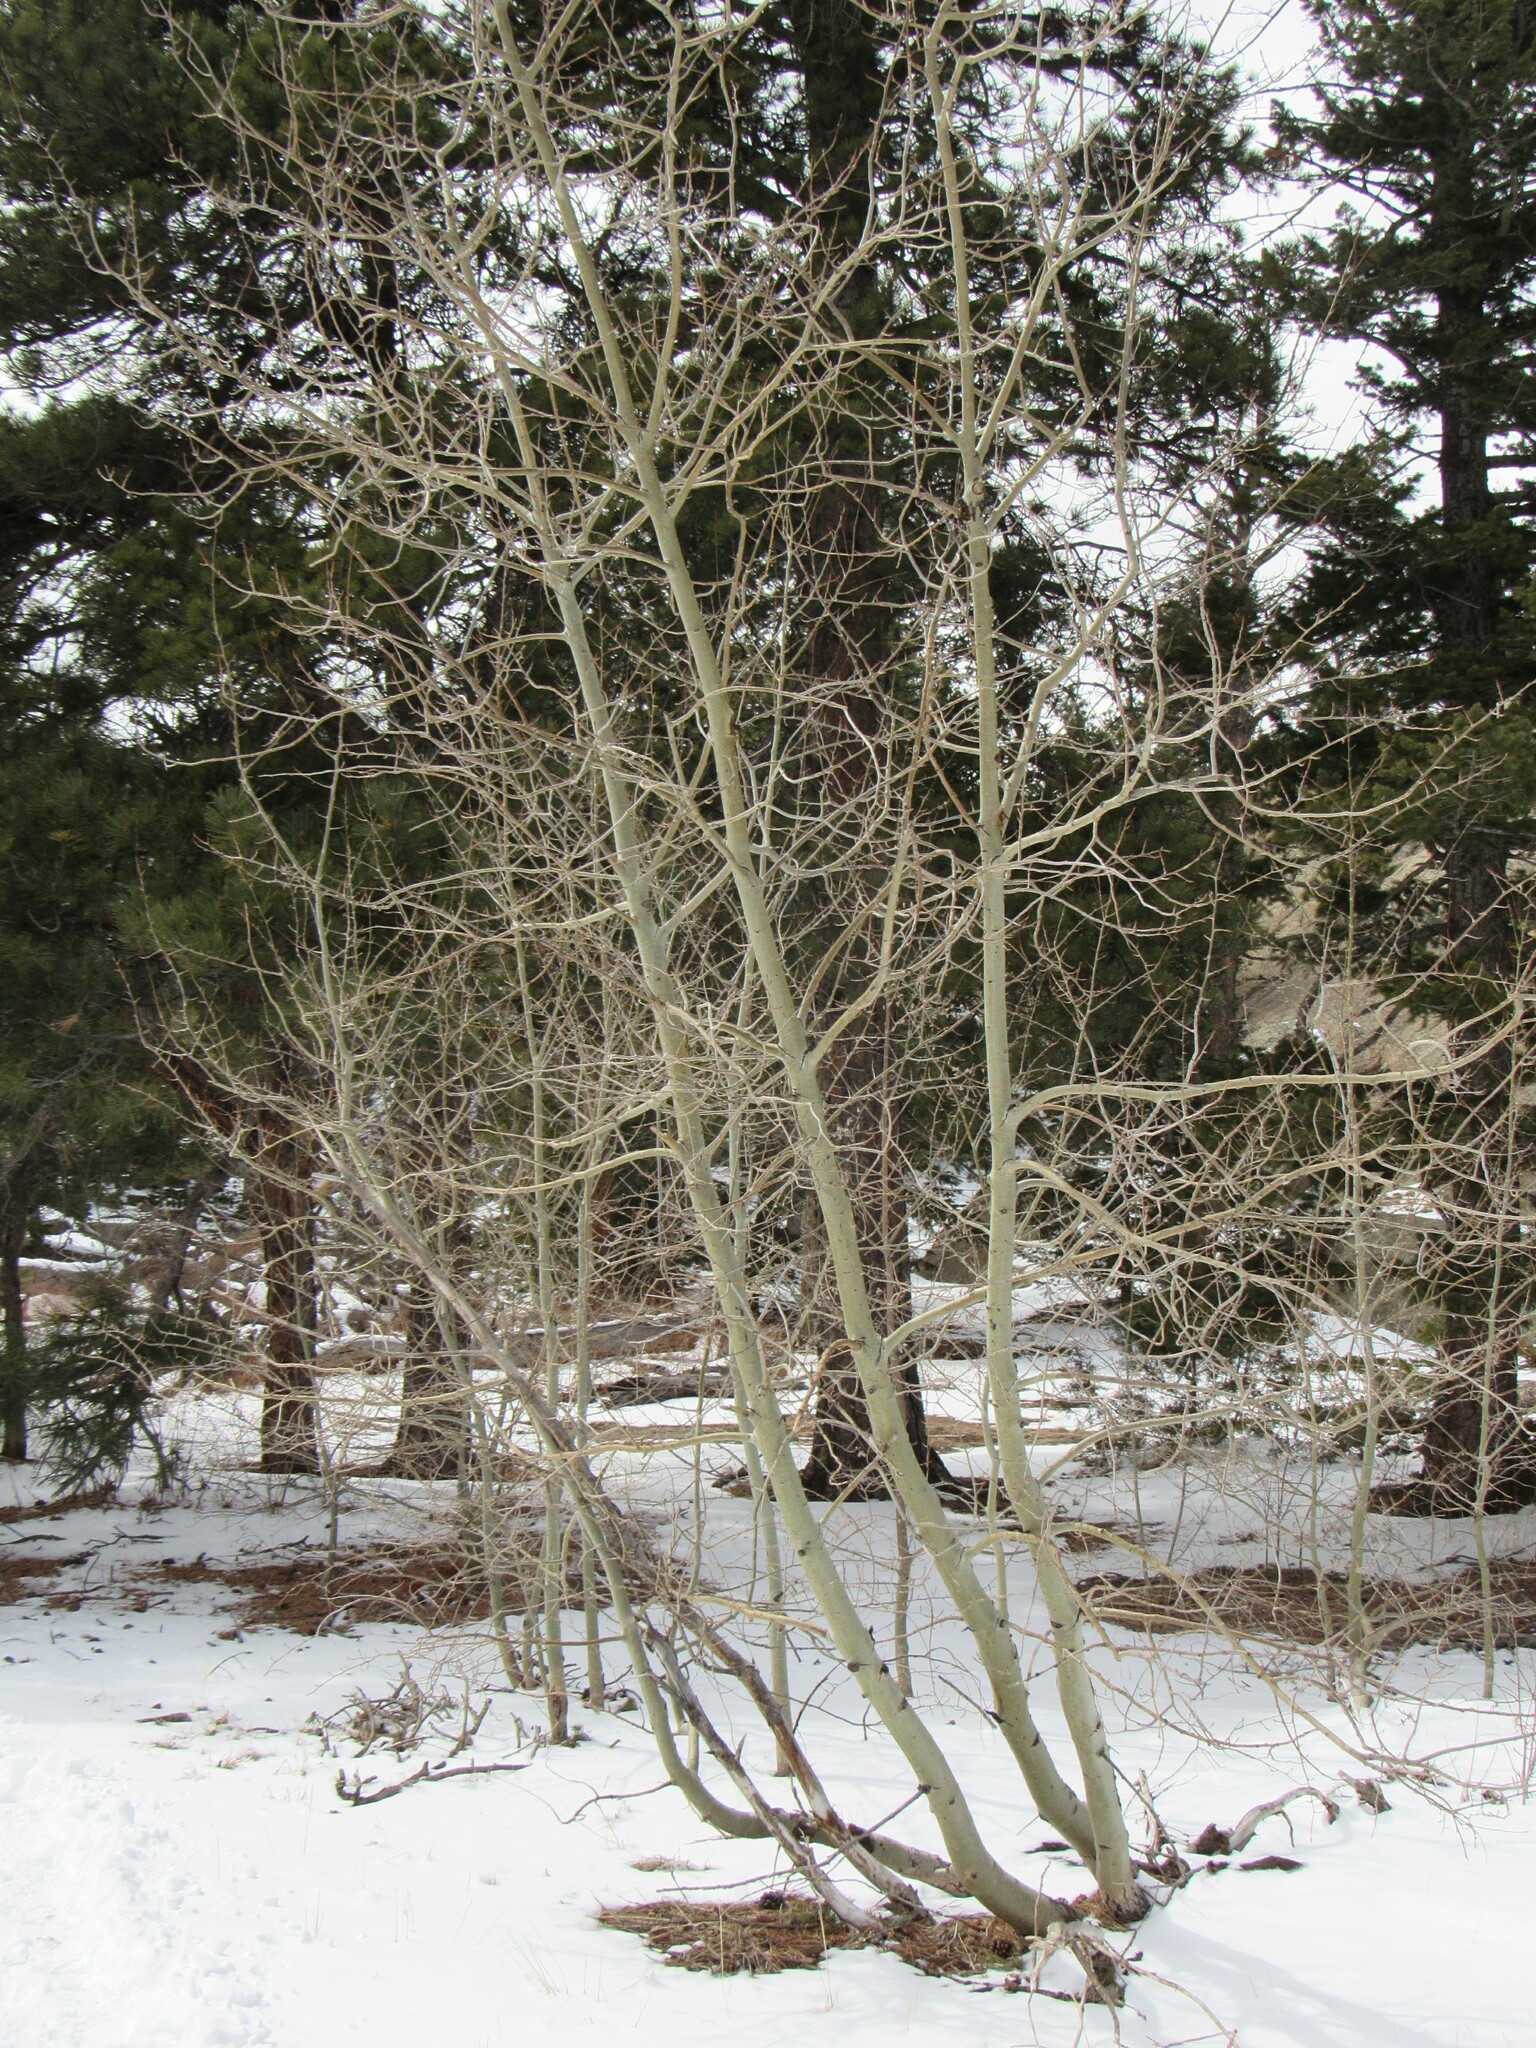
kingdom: Plantae
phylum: Tracheophyta
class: Magnoliopsida
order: Malpighiales
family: Salicaceae
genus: Populus
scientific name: Populus tremuloides
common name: Quaking aspen
